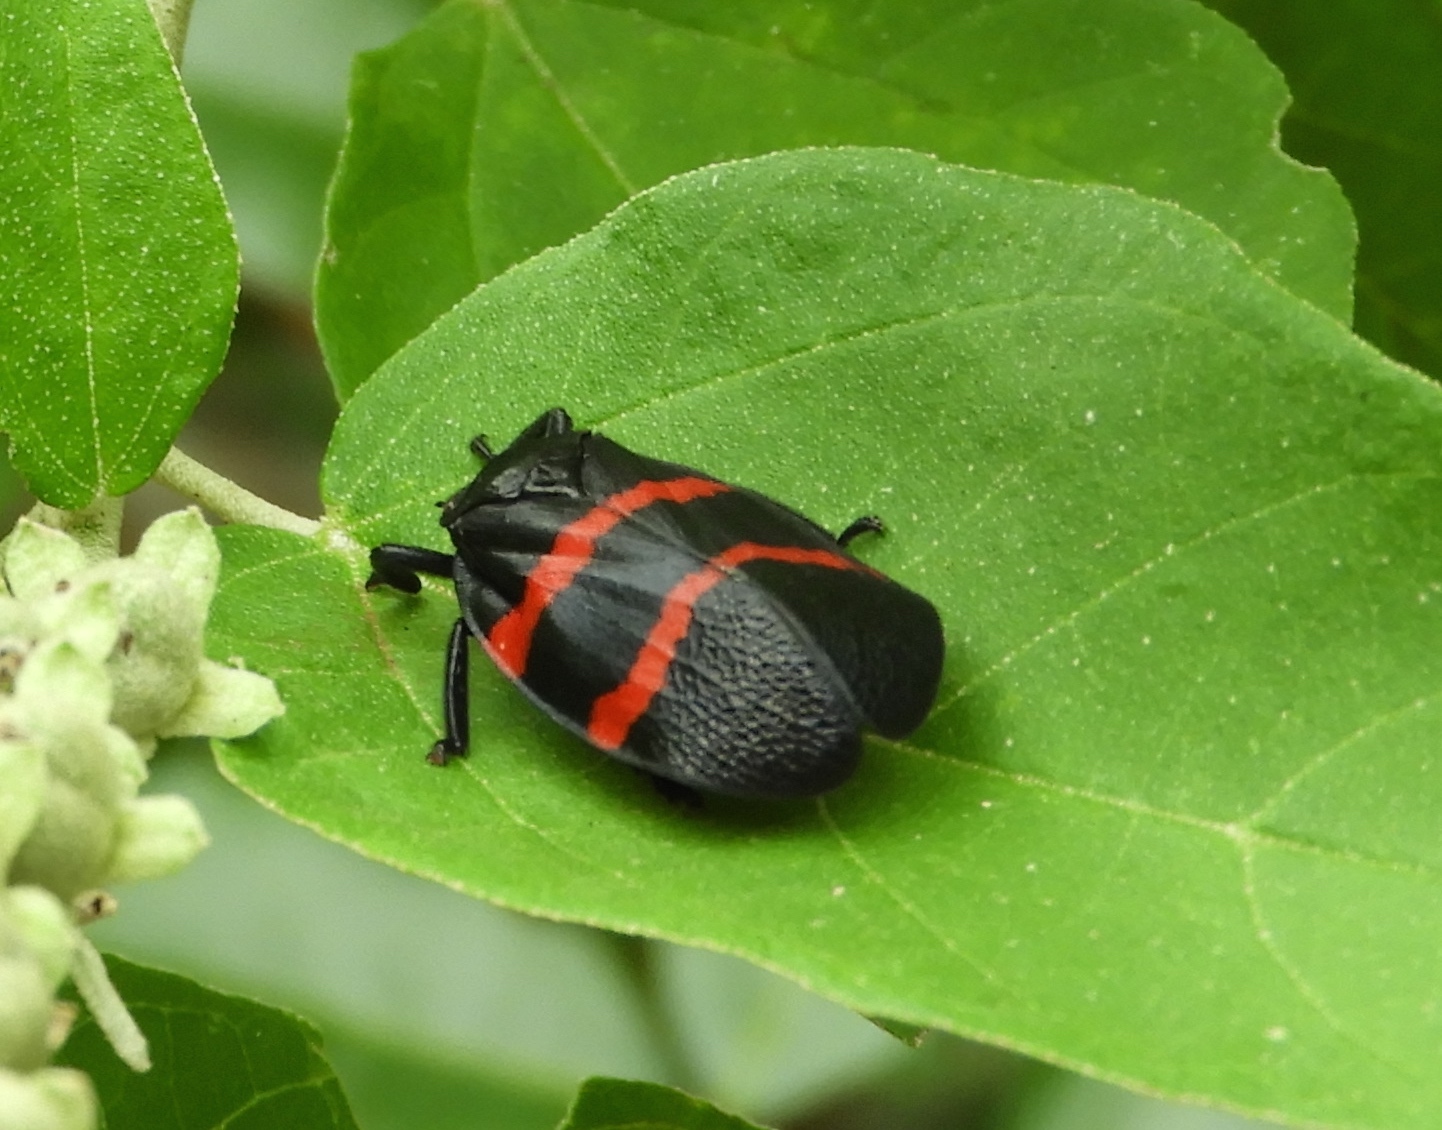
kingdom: Animalia
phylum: Arthropoda
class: Insecta
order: Hemiptera
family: Cercopidae
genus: Huaina
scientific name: Huaina inca
